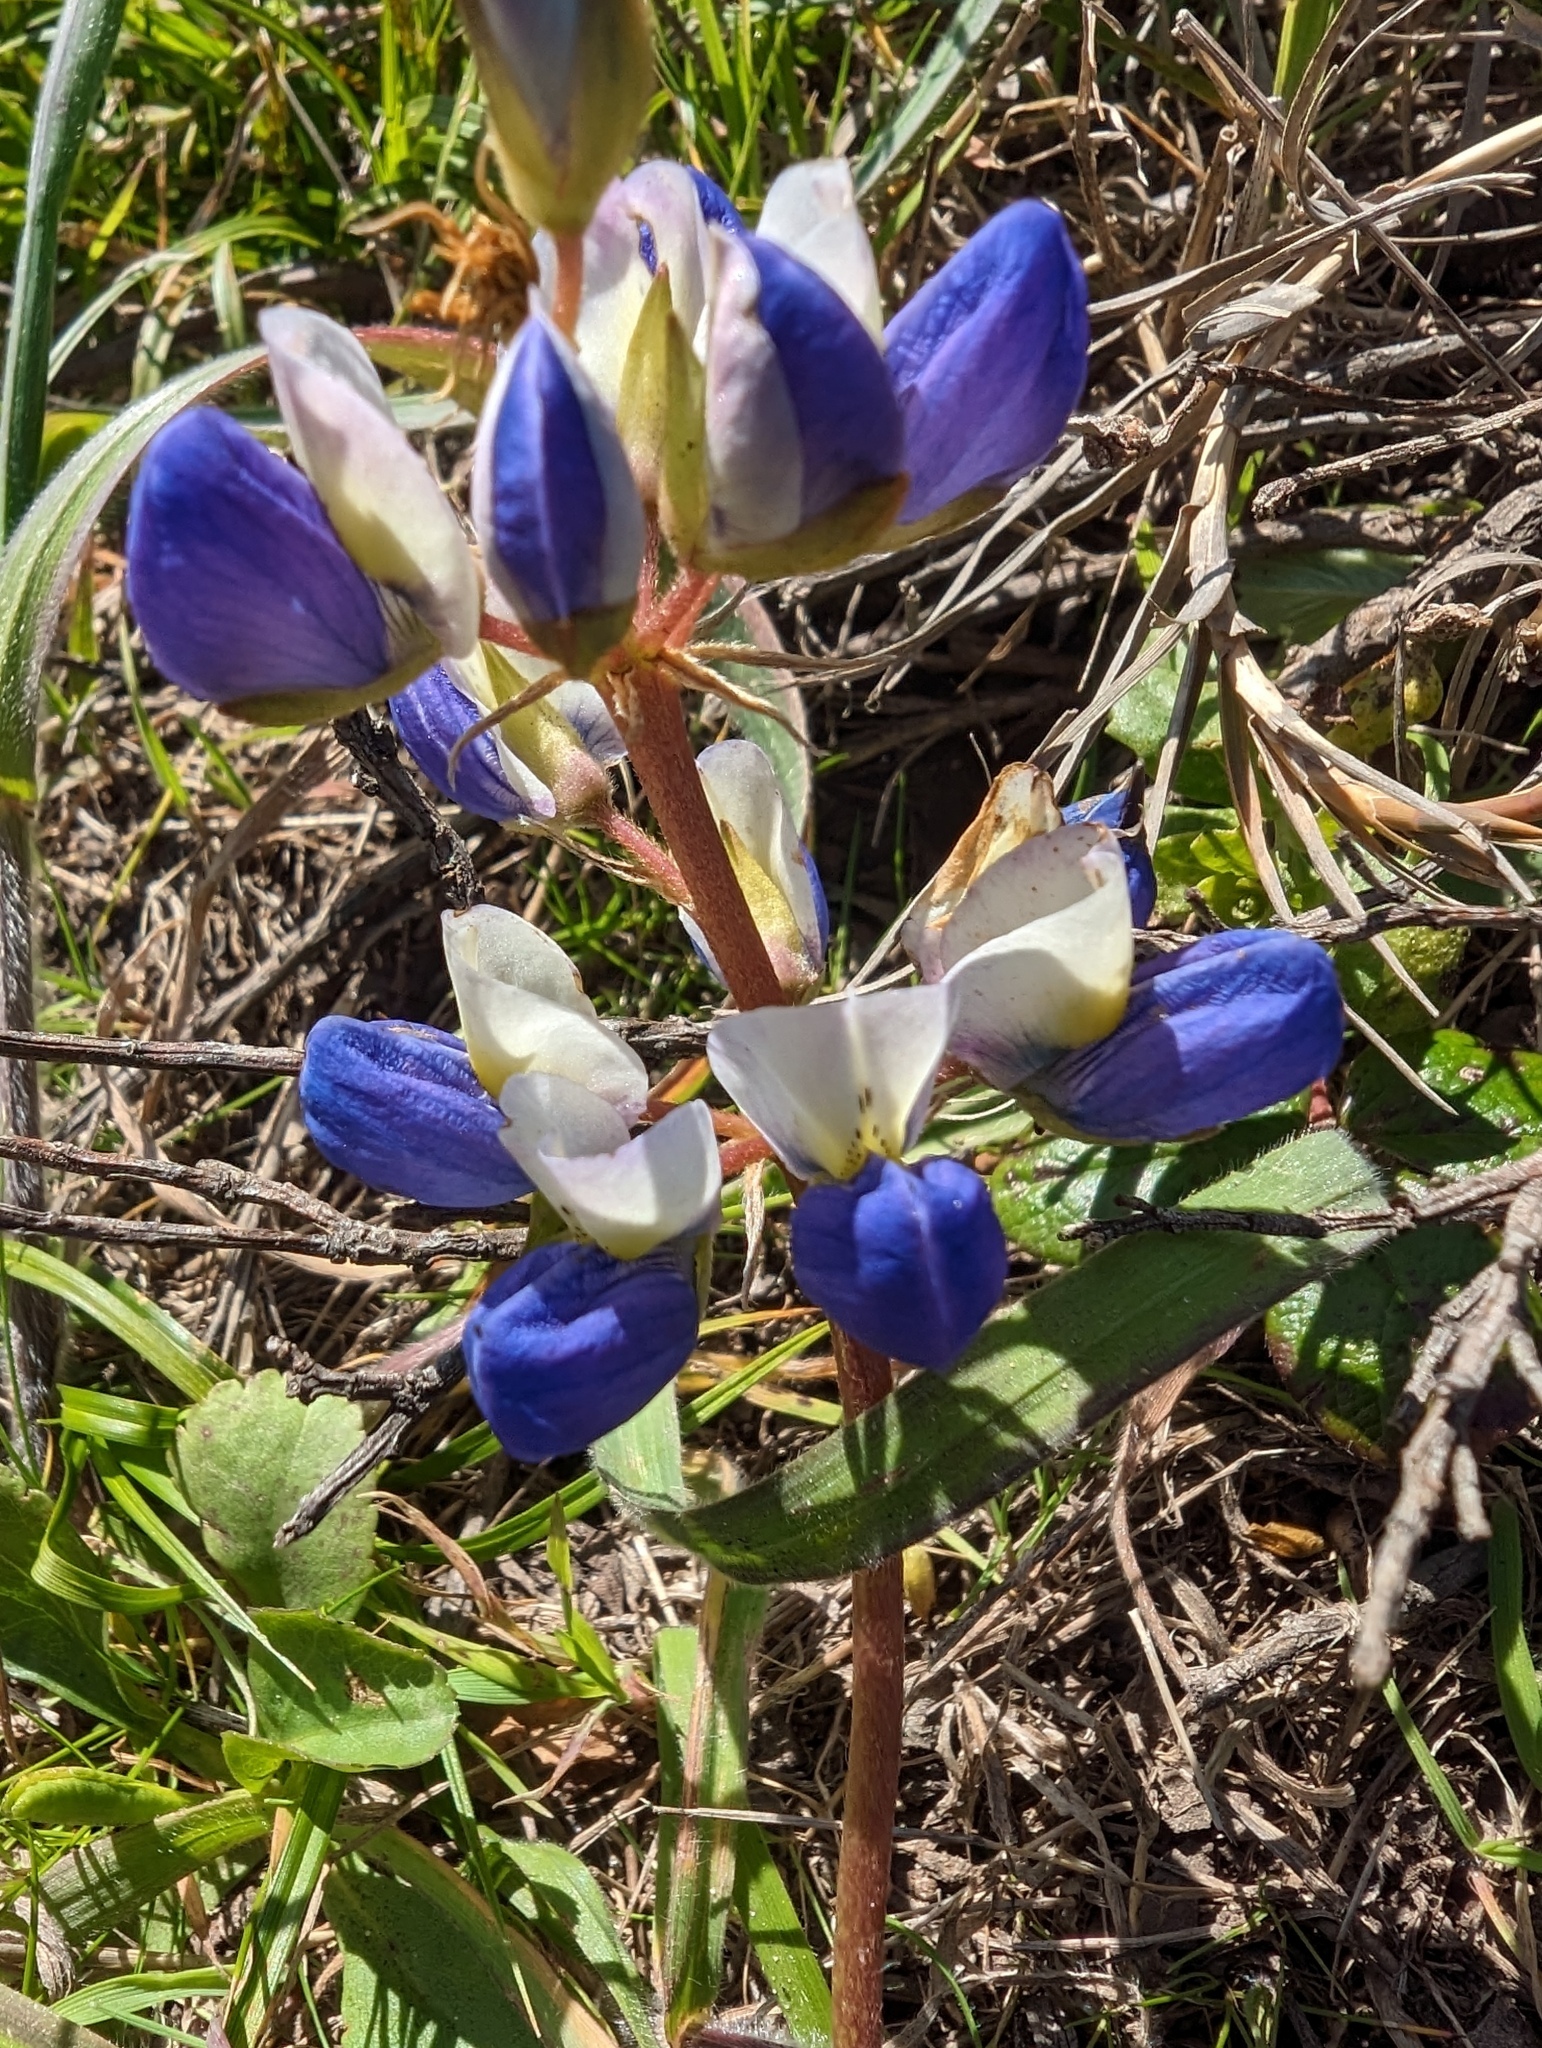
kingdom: Plantae
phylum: Tracheophyta
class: Magnoliopsida
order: Fabales
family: Fabaceae
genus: Lupinus
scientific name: Lupinus variicolor
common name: Lindley's varied lupine
